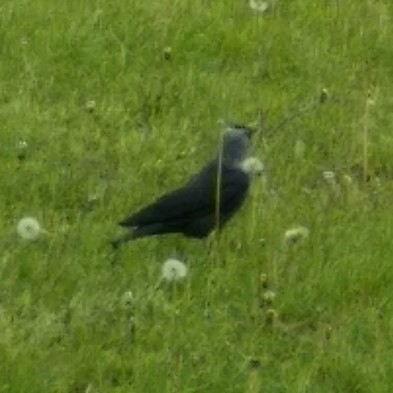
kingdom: Animalia
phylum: Chordata
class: Aves
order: Passeriformes
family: Corvidae
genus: Coloeus
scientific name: Coloeus monedula
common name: Western jackdaw
